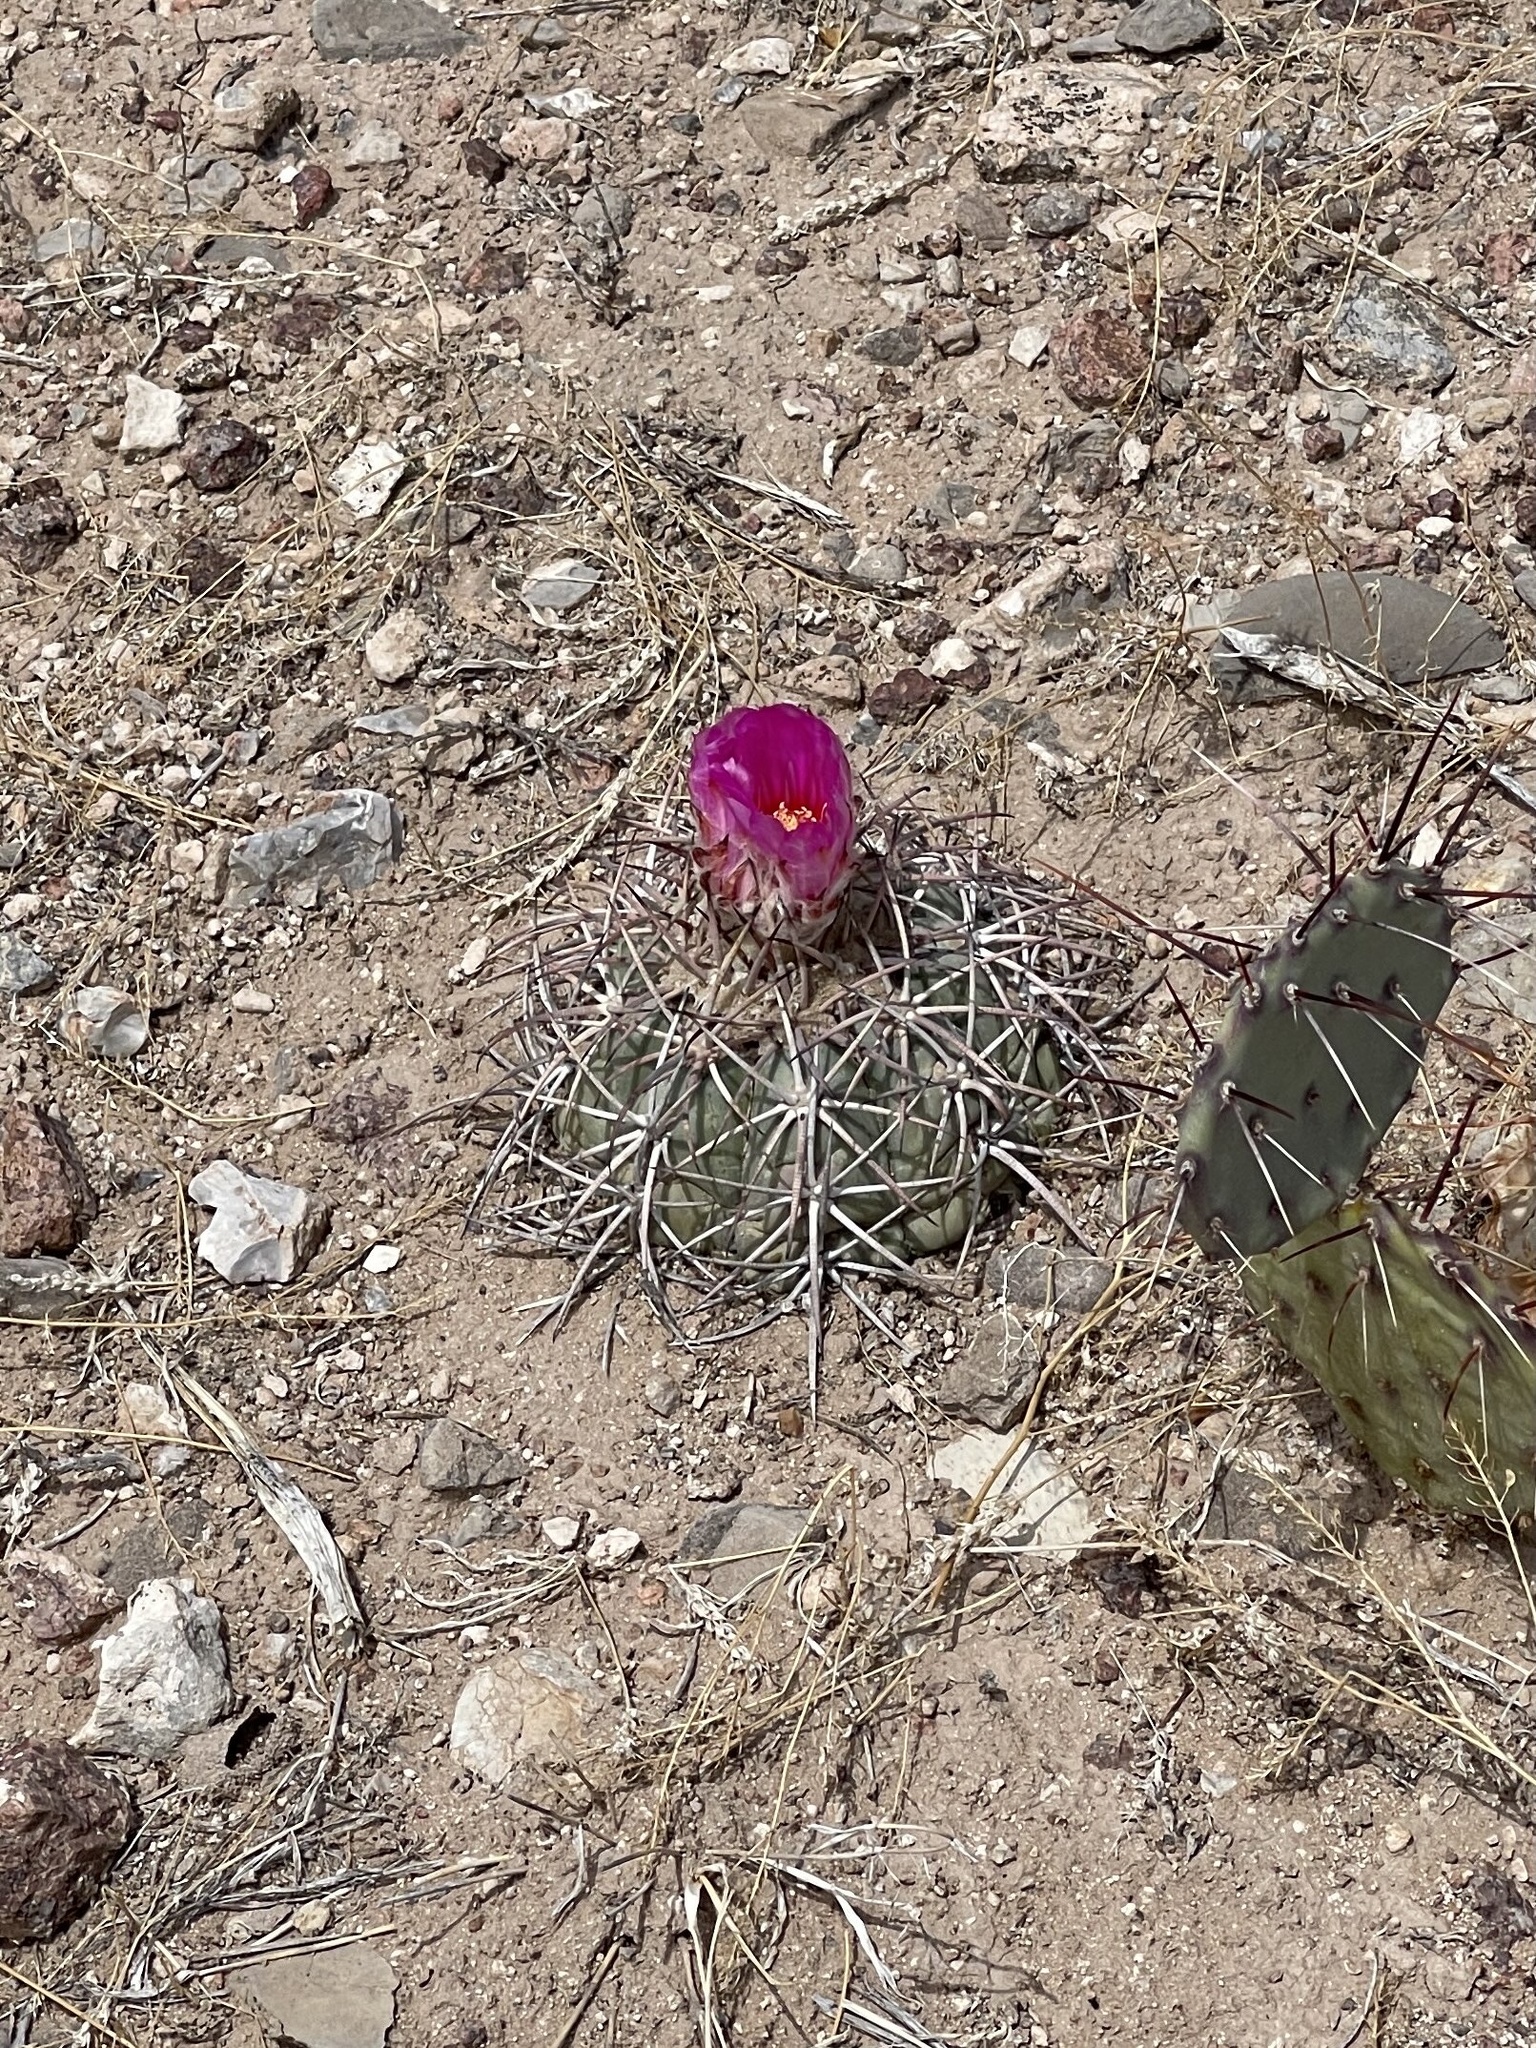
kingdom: Plantae
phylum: Tracheophyta
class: Magnoliopsida
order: Caryophyllales
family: Cactaceae
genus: Echinocactus
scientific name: Echinocactus horizonthalonius
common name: Devilshead
